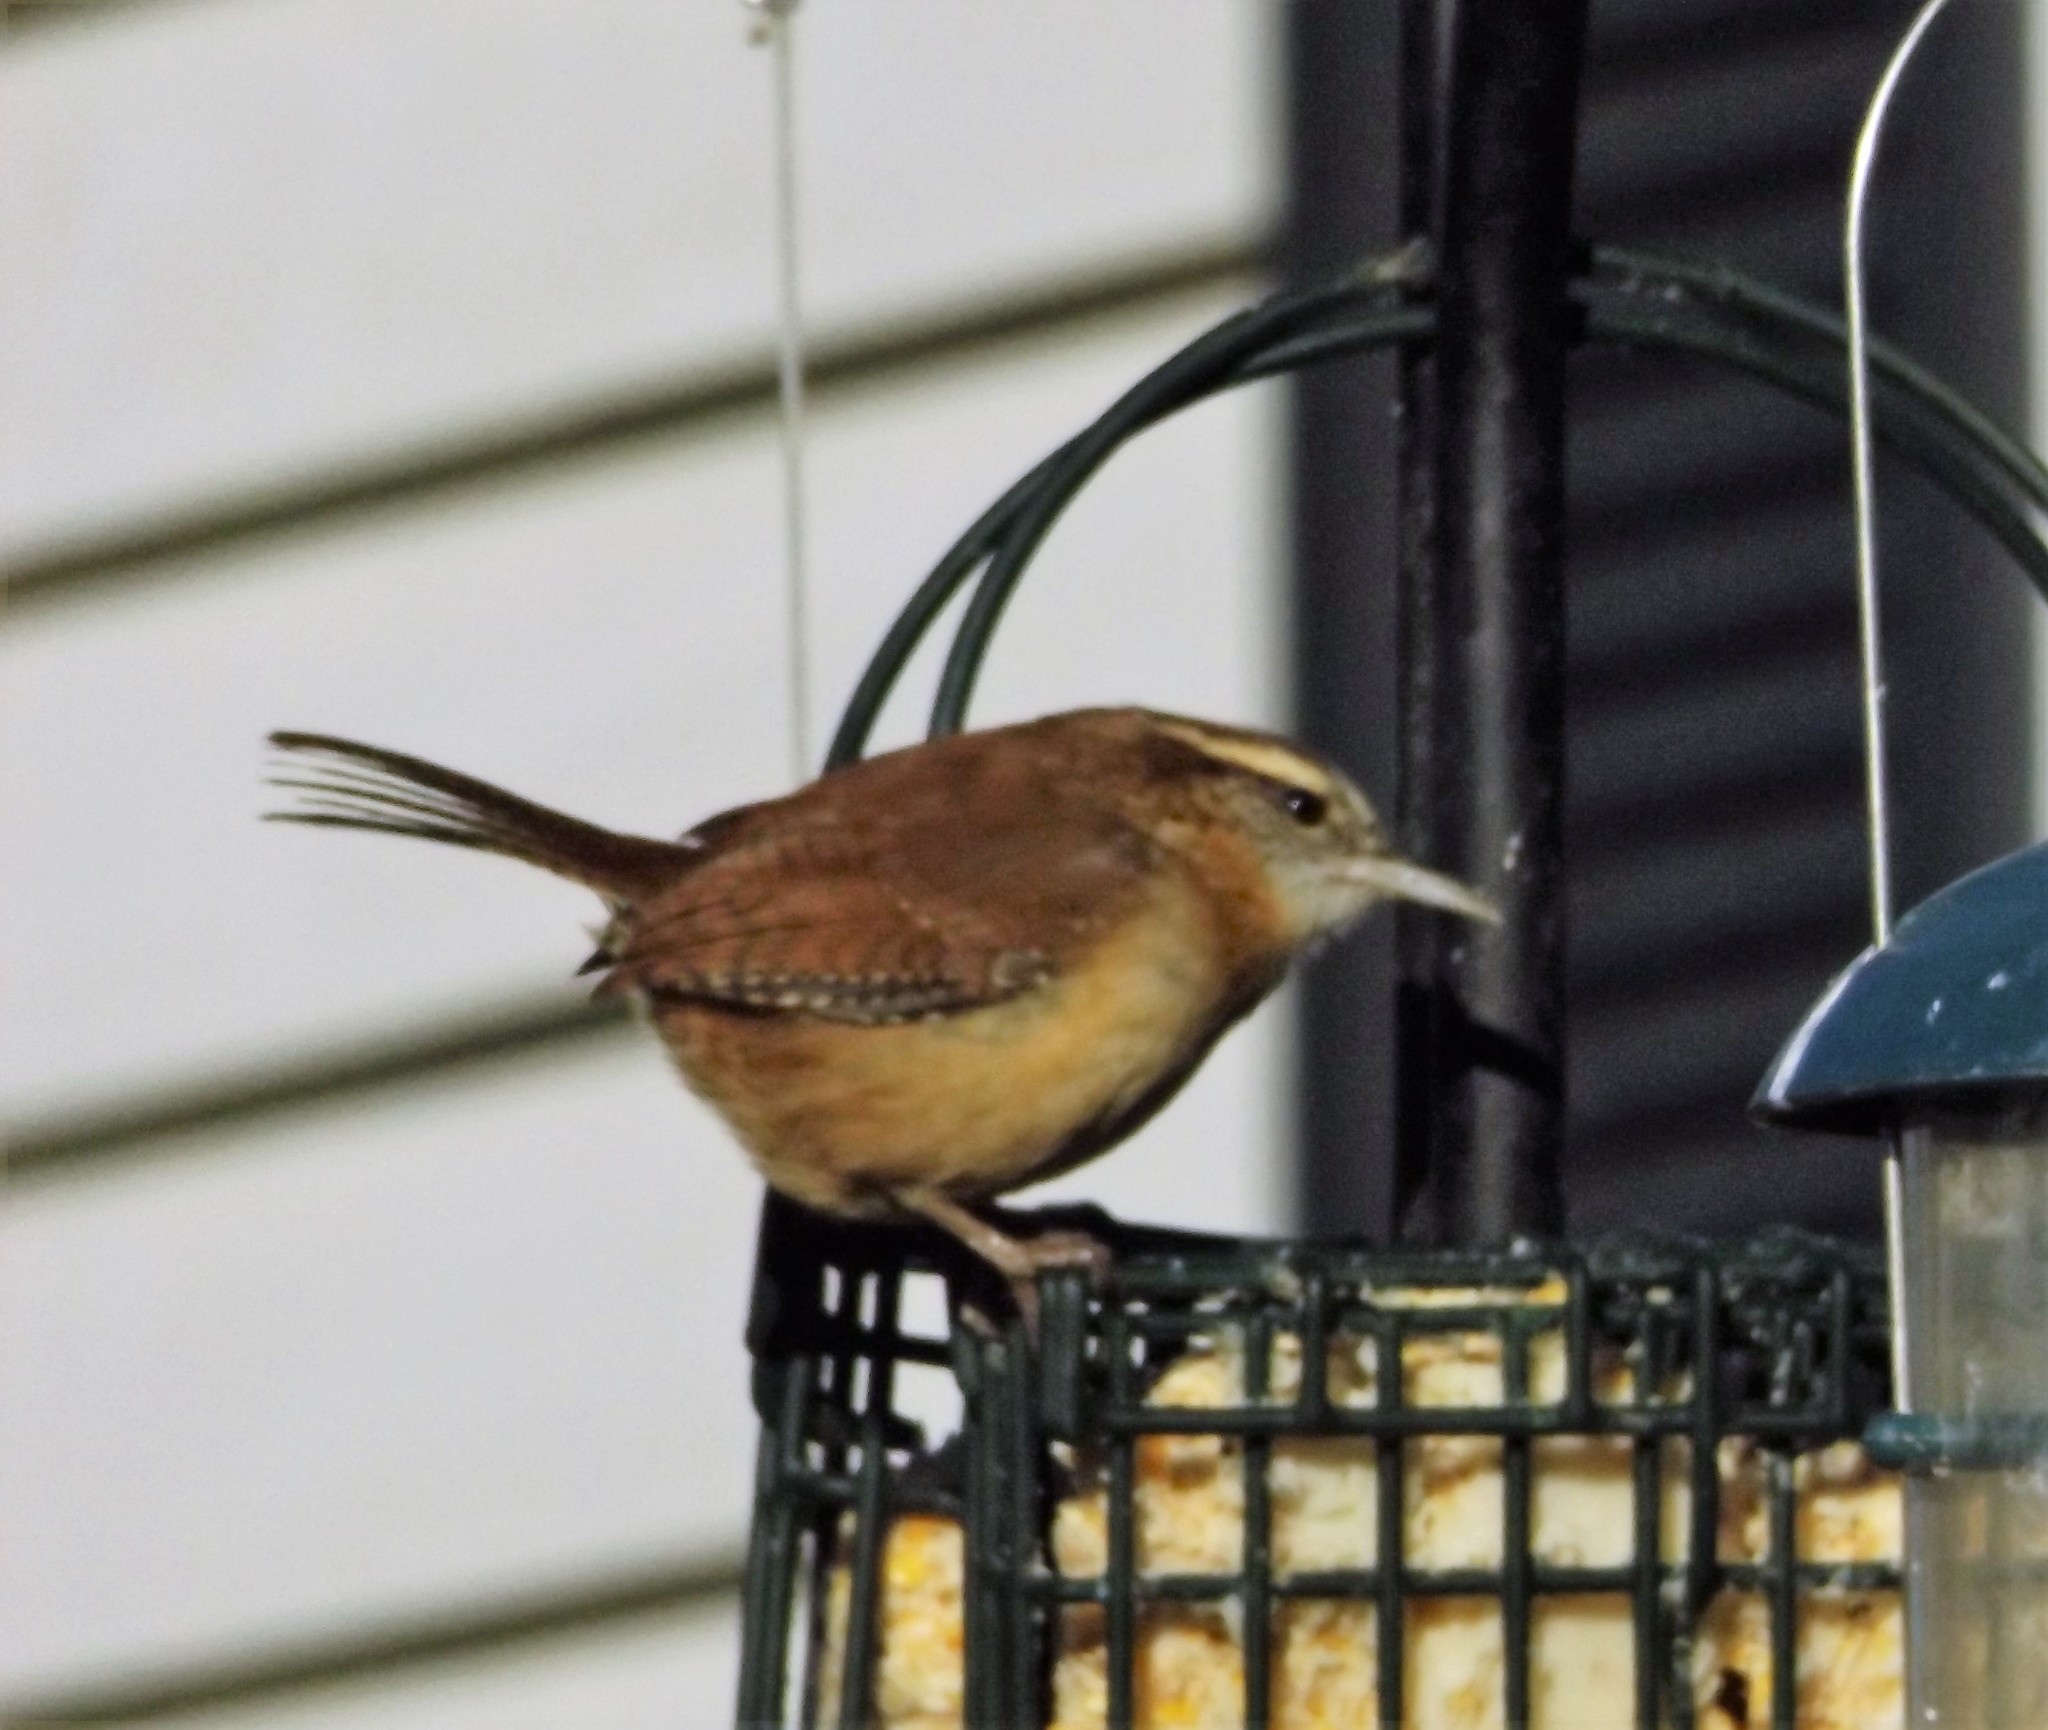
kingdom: Animalia
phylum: Chordata
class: Aves
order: Passeriformes
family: Troglodytidae
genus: Thryothorus
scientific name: Thryothorus ludovicianus
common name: Carolina wren
